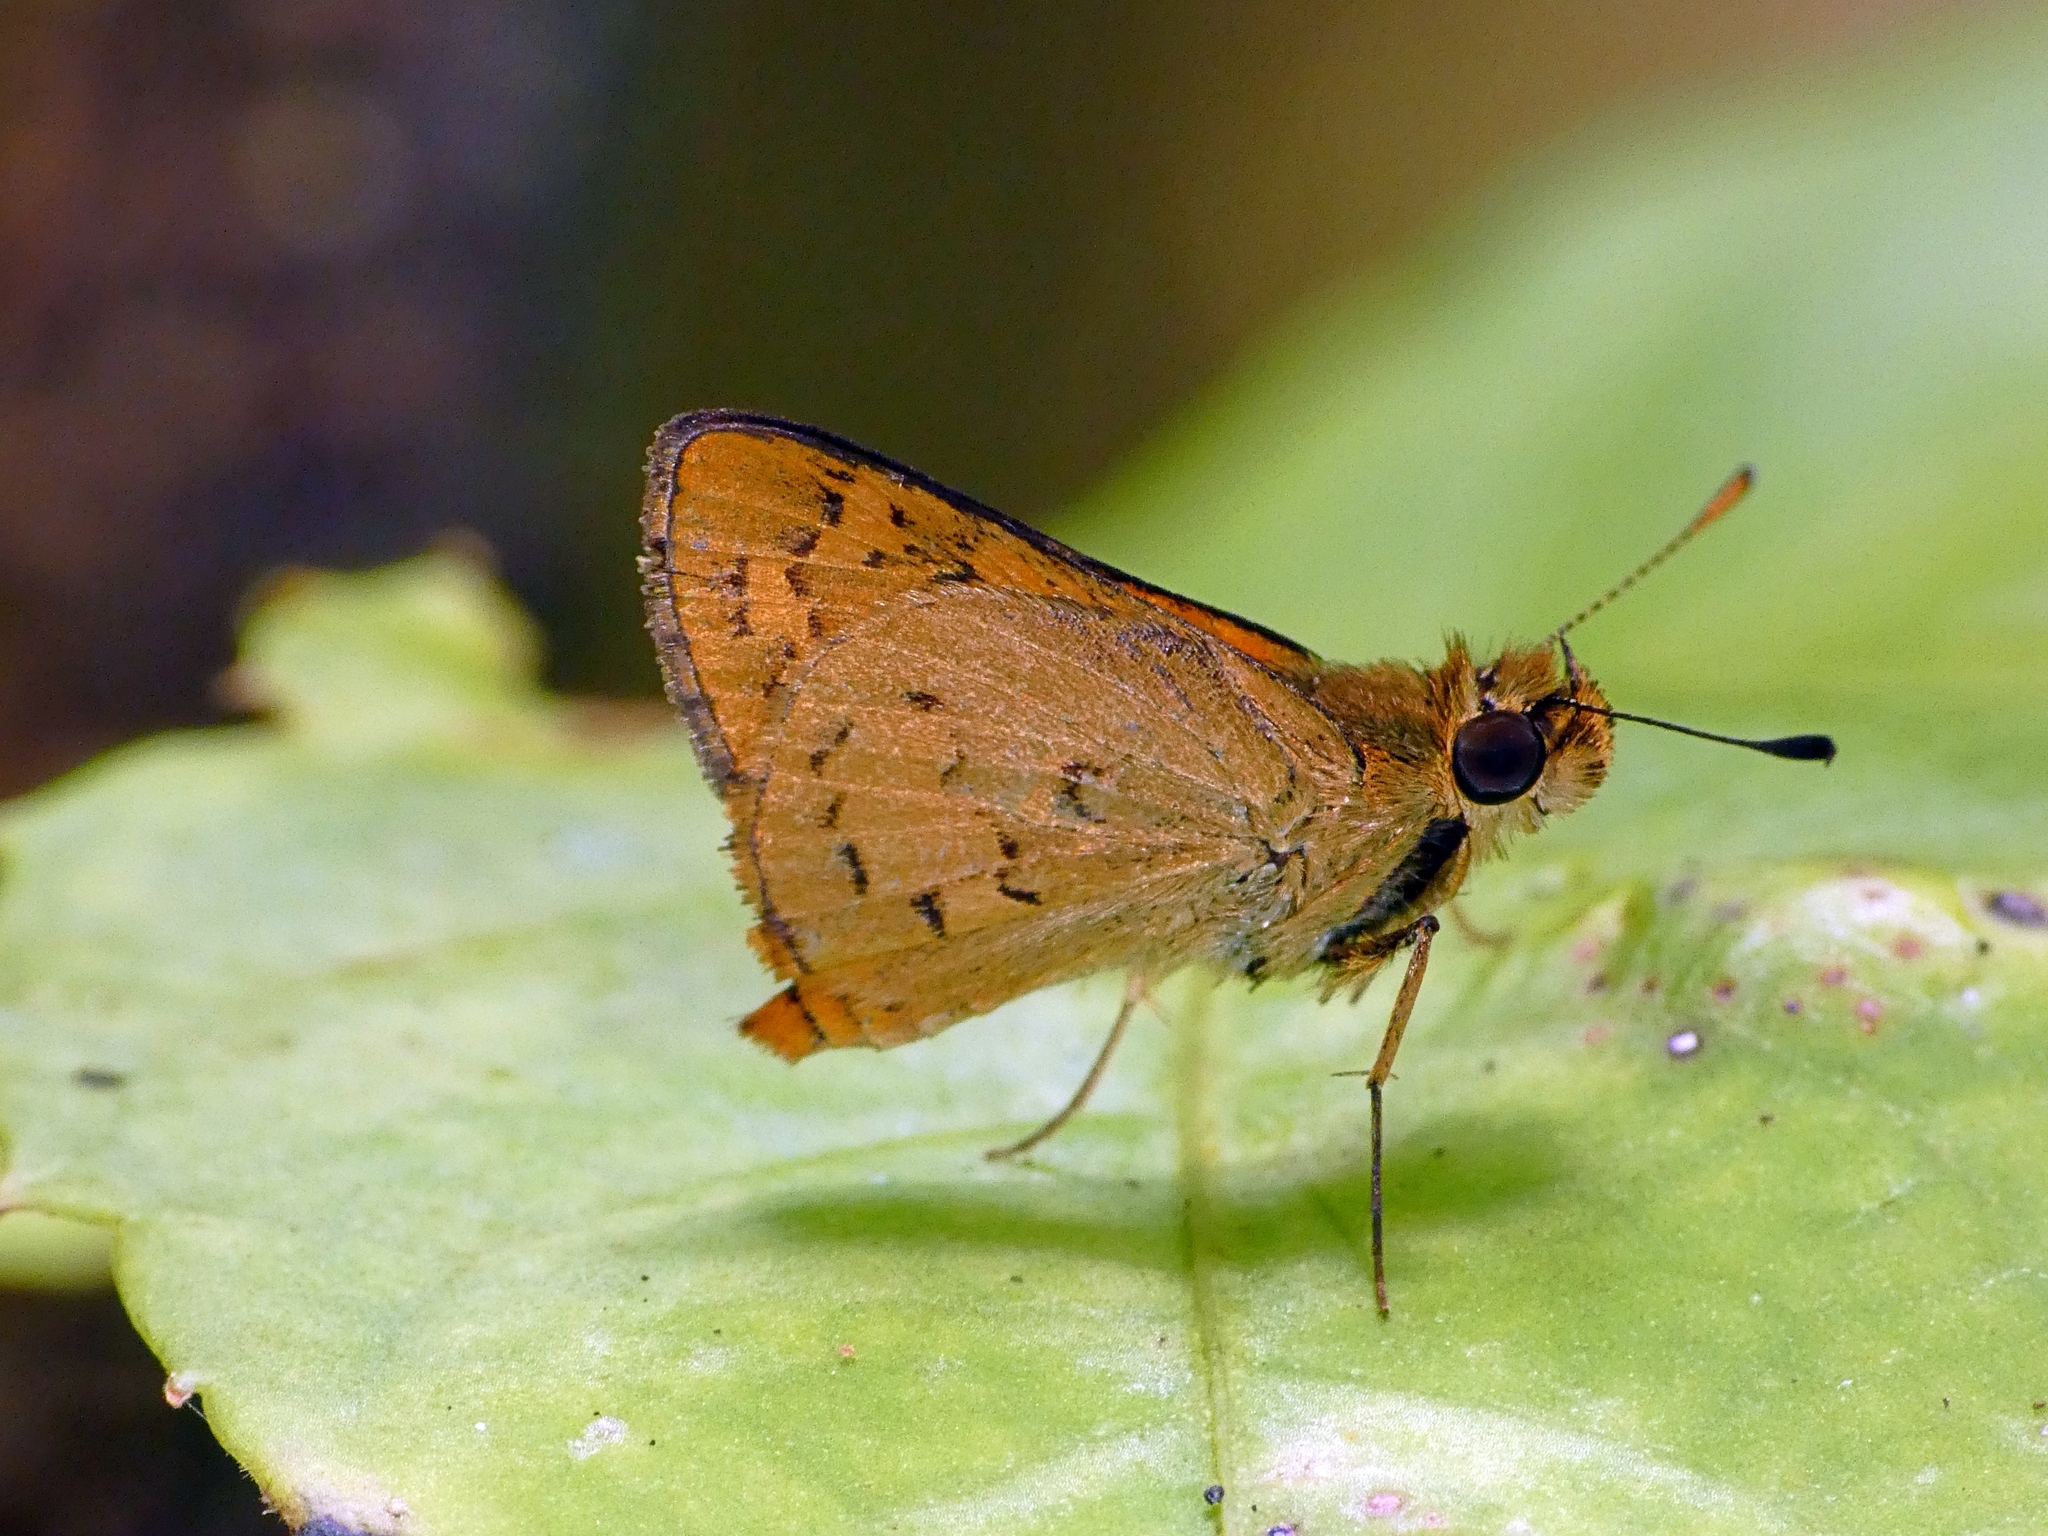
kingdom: Animalia
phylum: Arthropoda
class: Insecta
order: Lepidoptera
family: Hesperiidae
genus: Ocybadistes
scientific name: Ocybadistes ardea
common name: Dark orange dart
